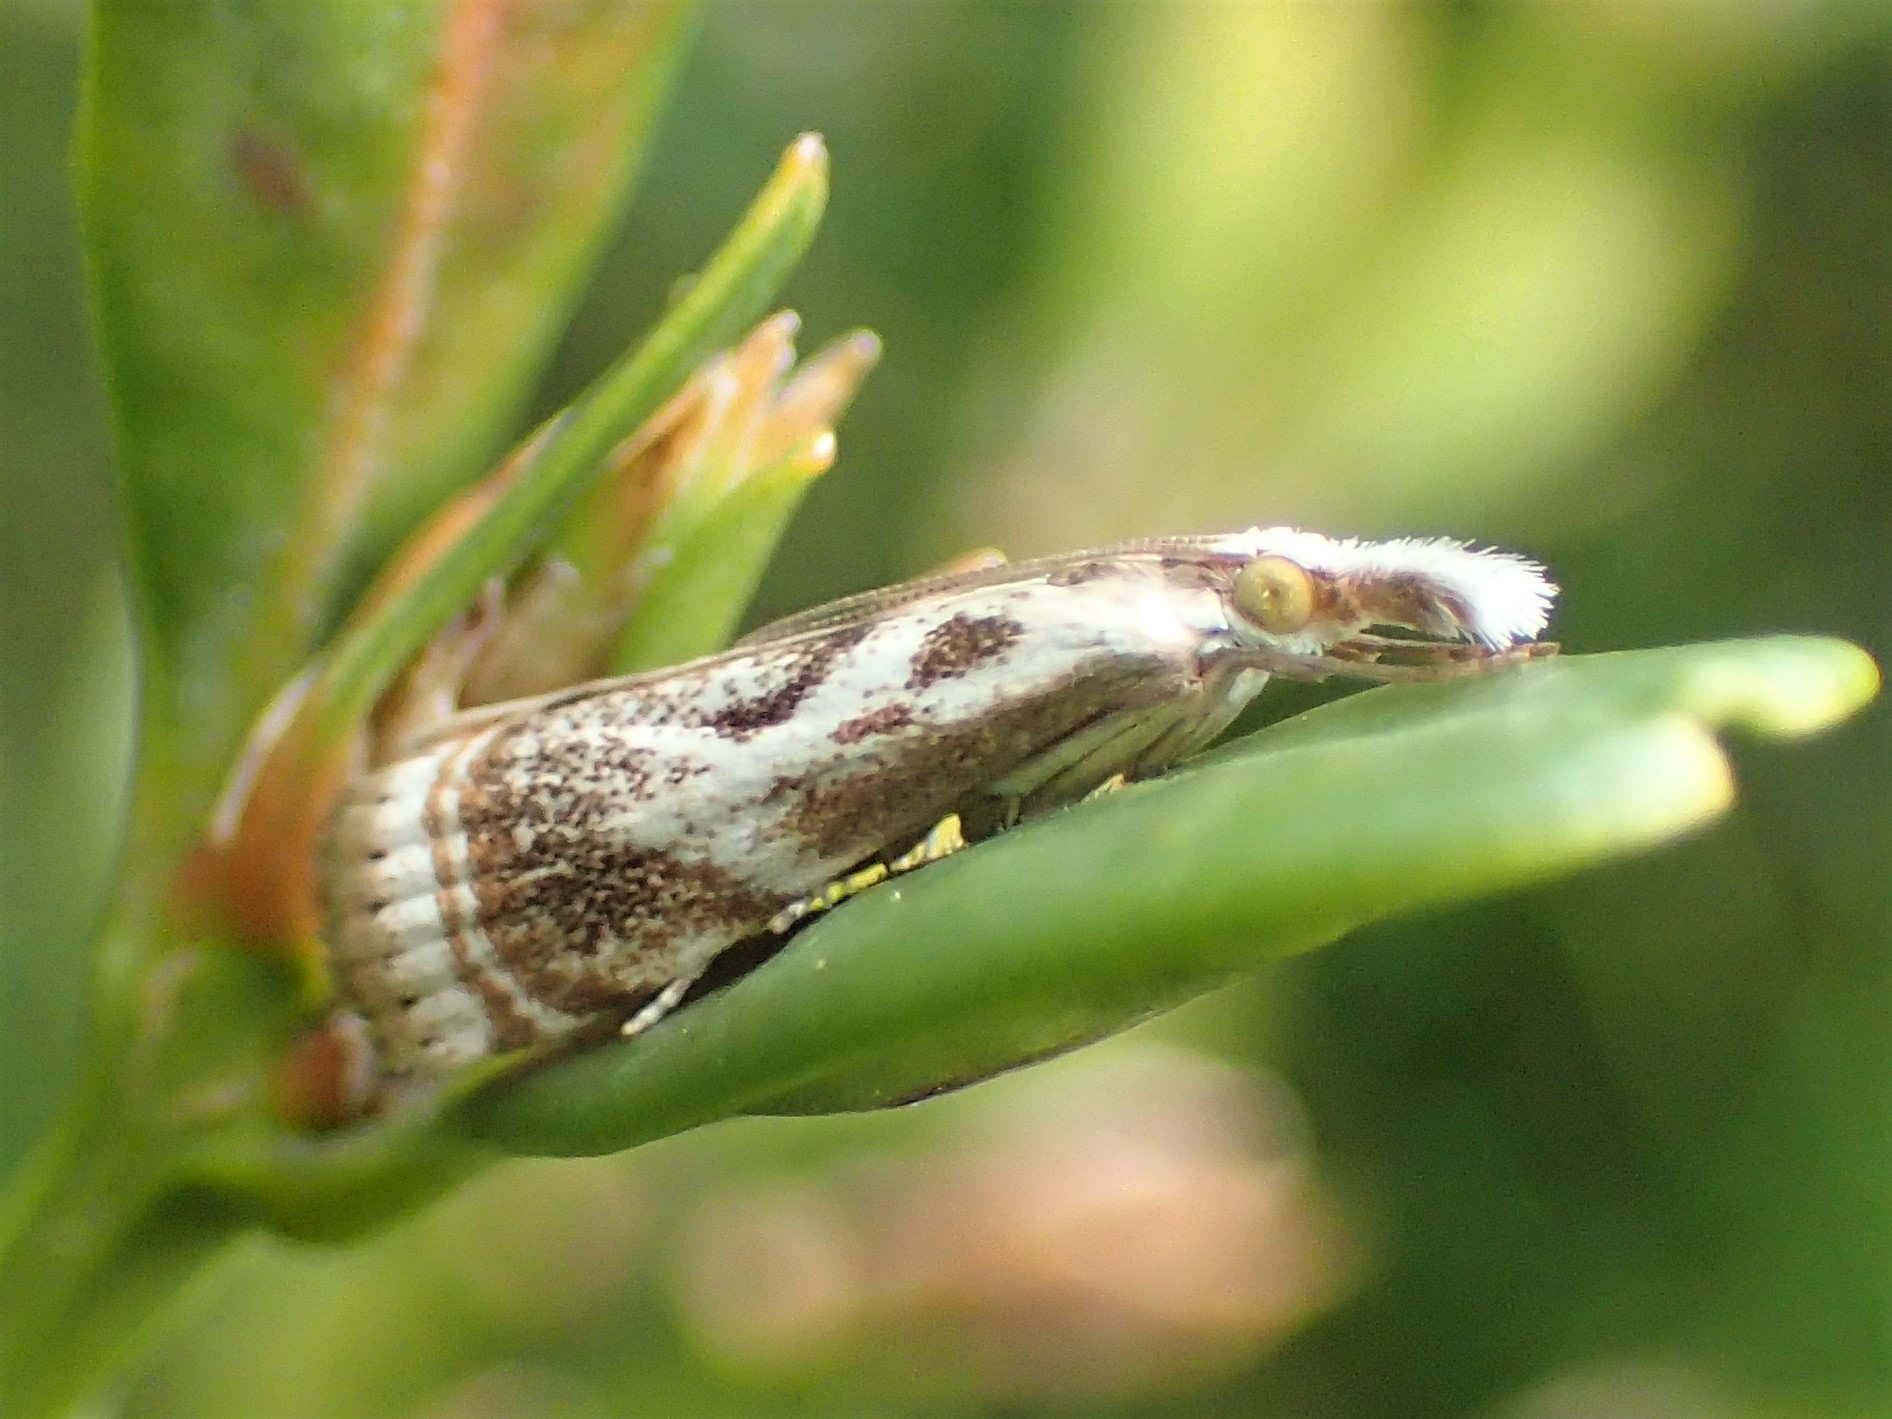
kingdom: Animalia
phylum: Arthropoda
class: Insecta
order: Lepidoptera
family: Crambidae
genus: Microcrambus
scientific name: Microcrambus elegans
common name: Elegant grass-veneer
